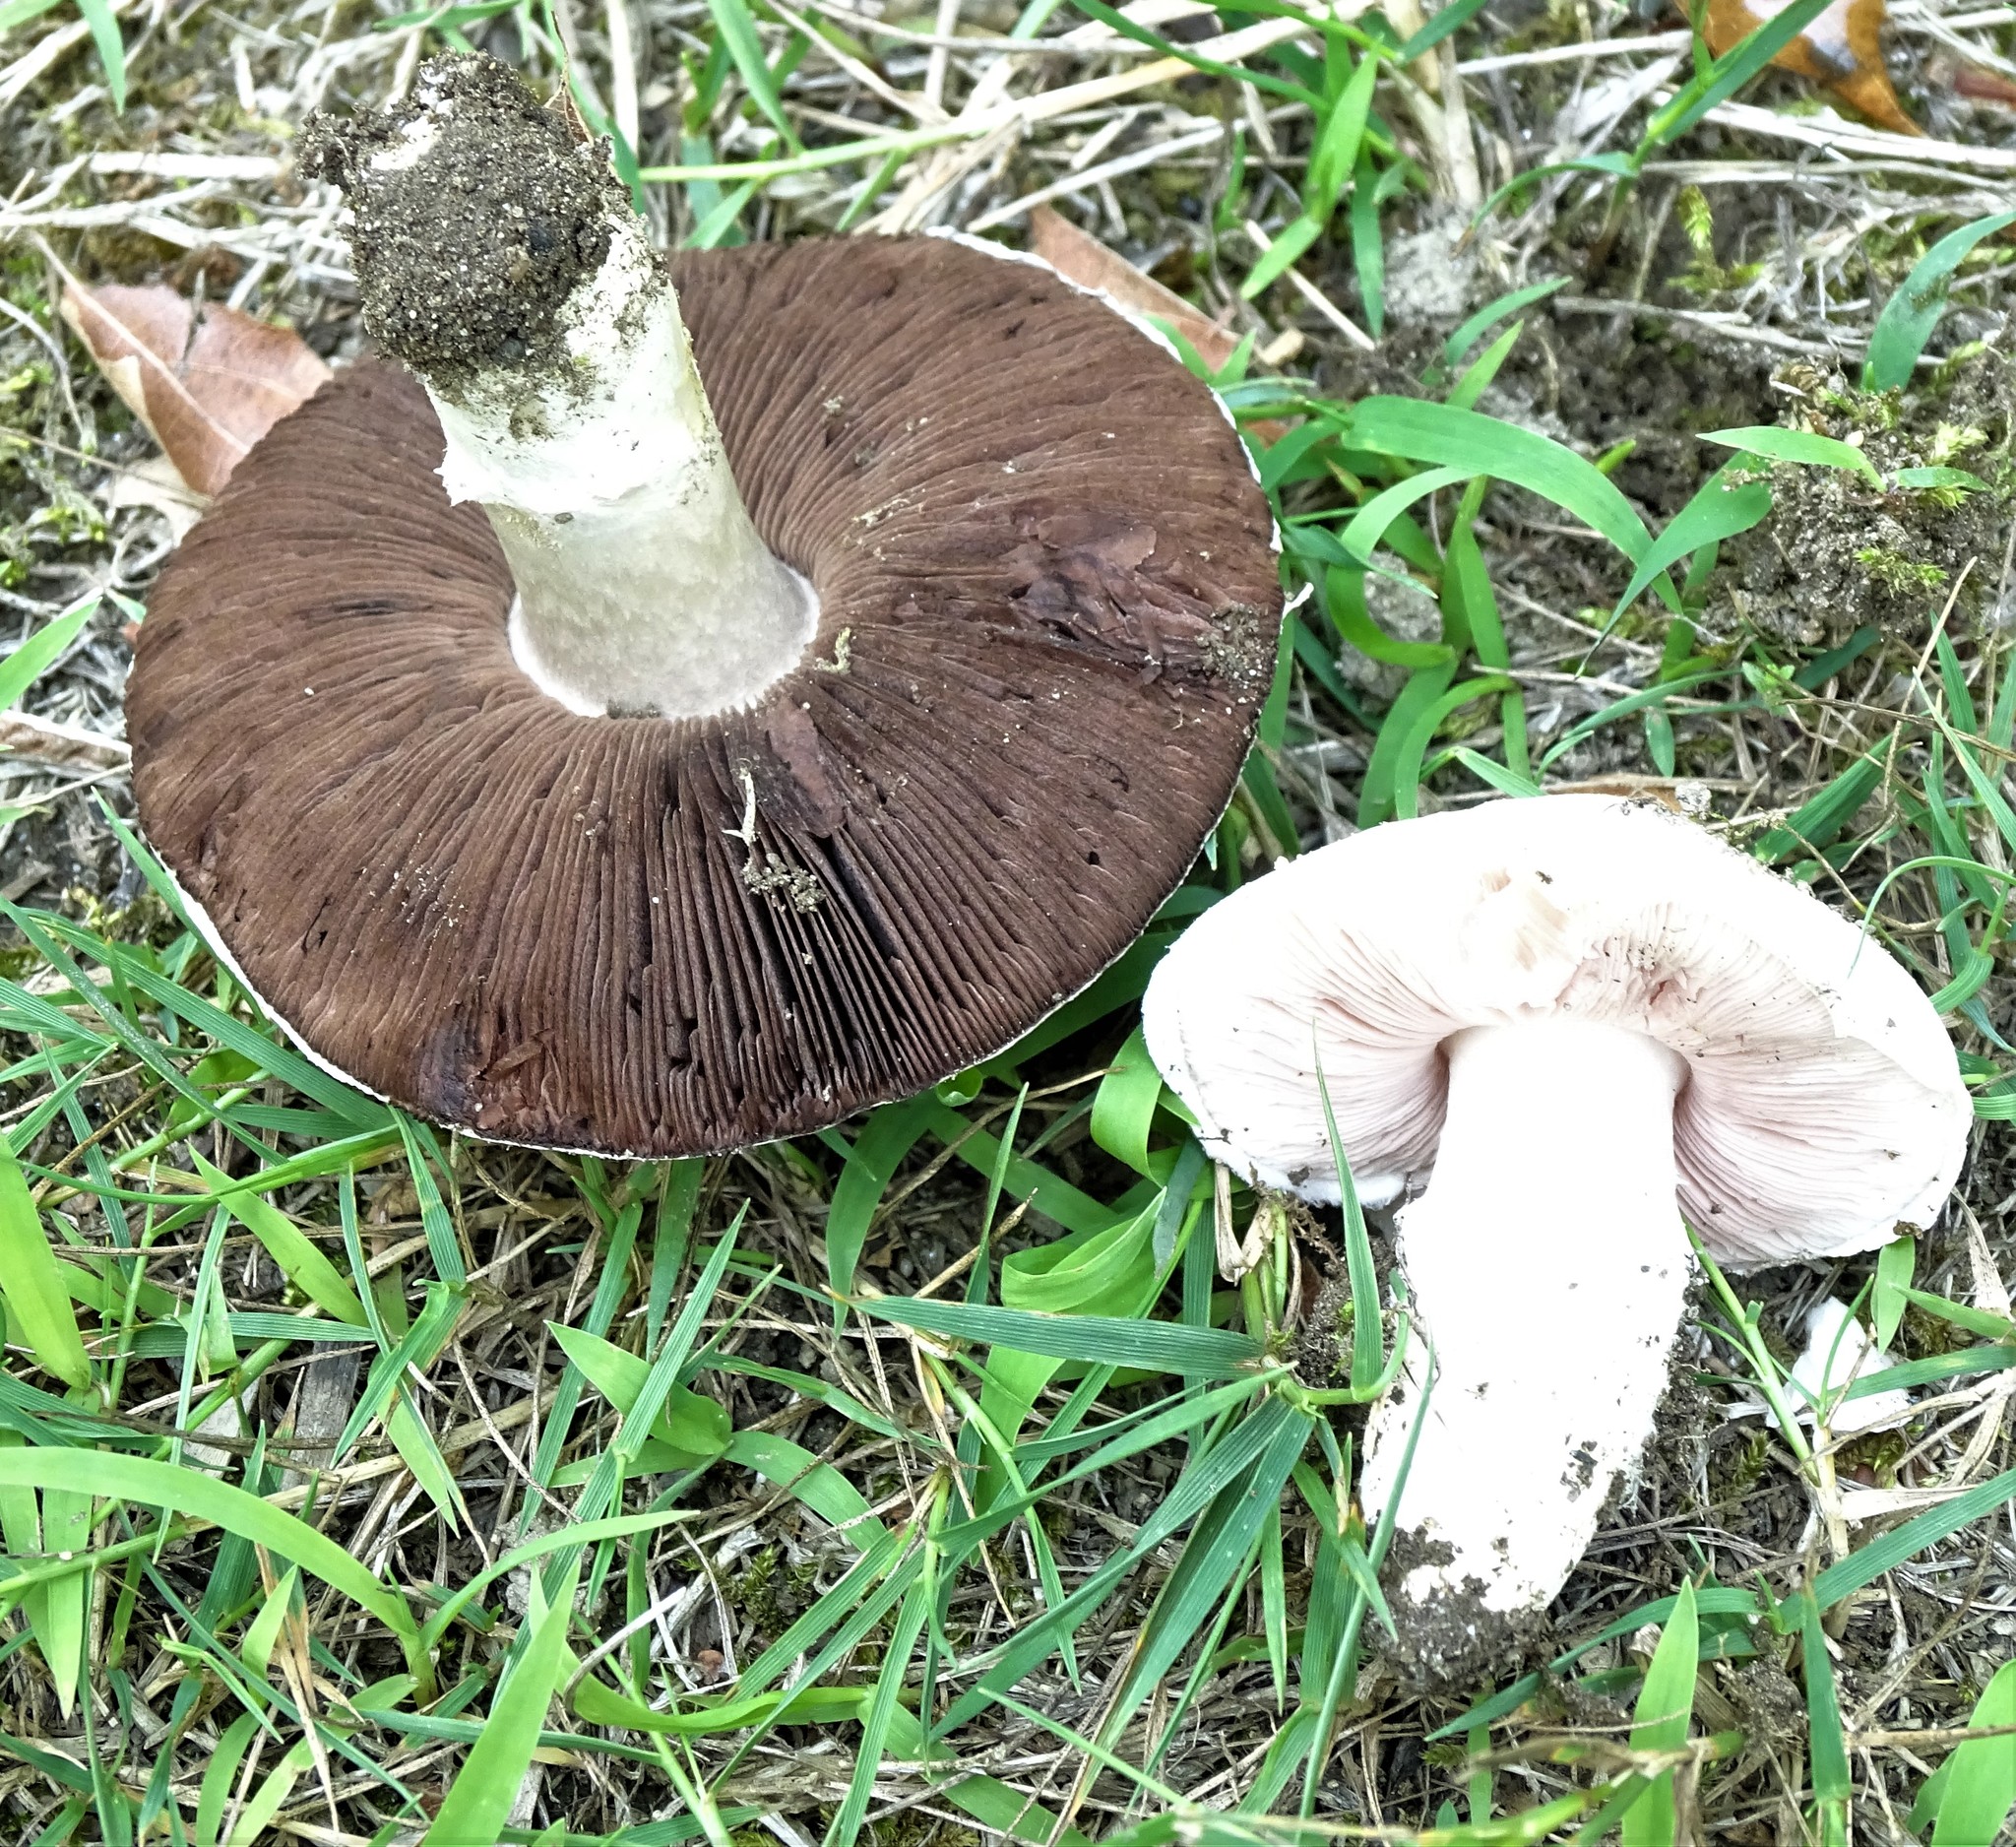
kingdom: Fungi
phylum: Basidiomycota
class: Agaricomycetes
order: Agaricales
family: Agaricaceae
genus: Agaricus
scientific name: Agaricus campestris
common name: Field mushroom
